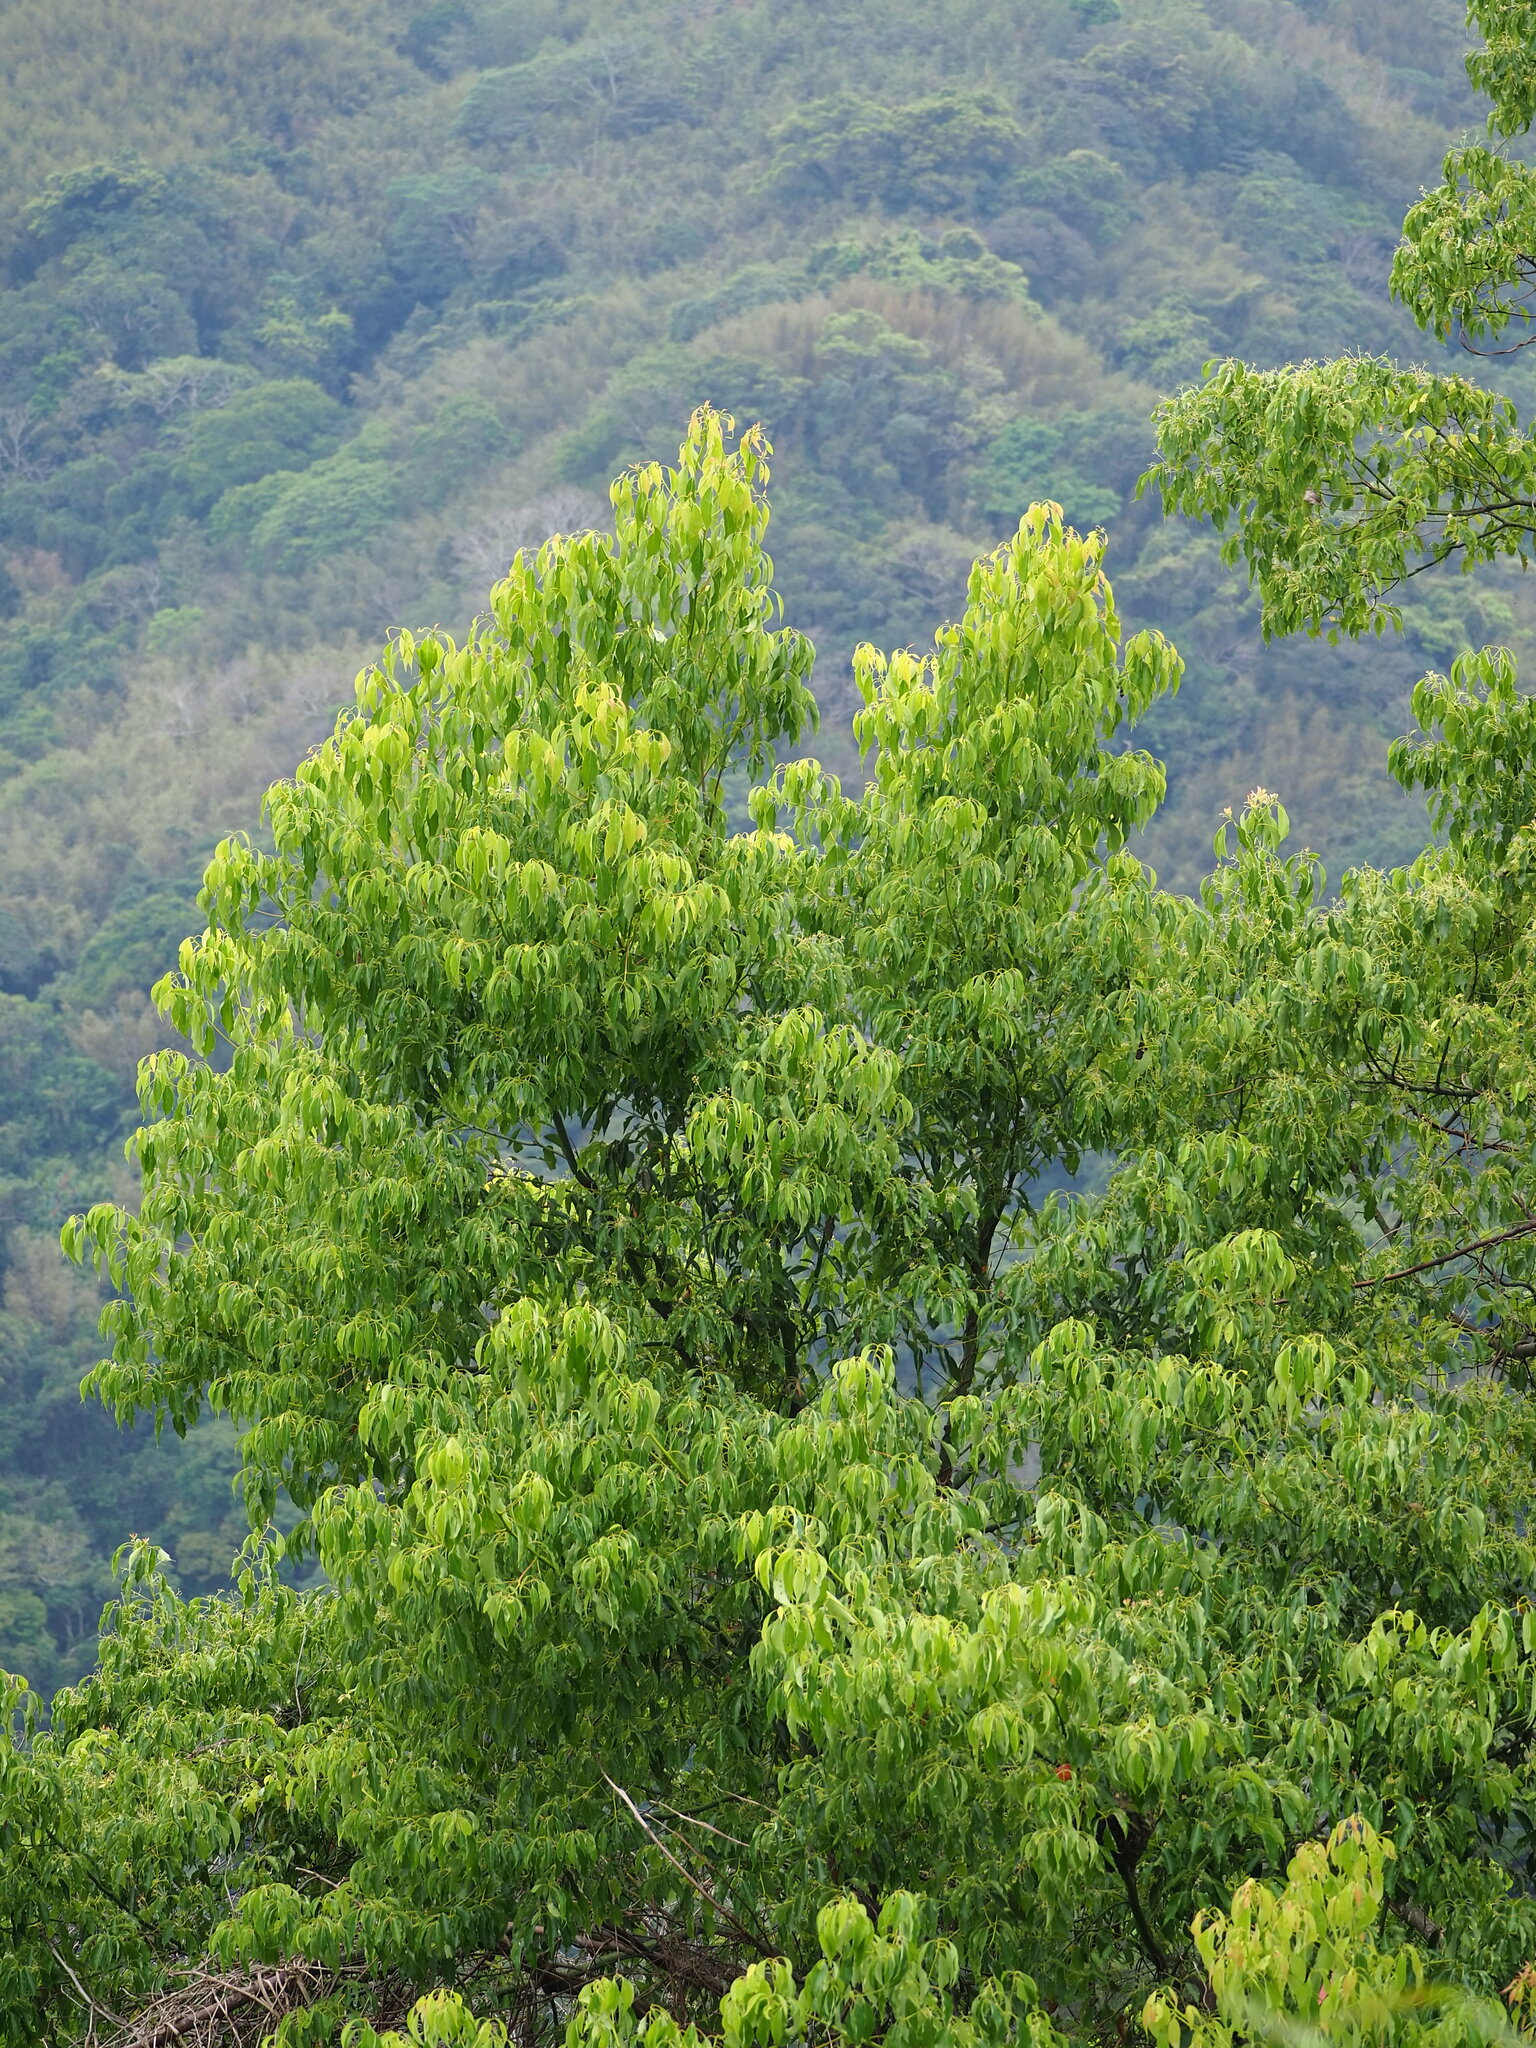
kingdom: Plantae
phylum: Tracheophyta
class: Magnoliopsida
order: Laurales
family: Lauraceae
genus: Cinnamomum
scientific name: Cinnamomum camphora
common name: Camphortree
